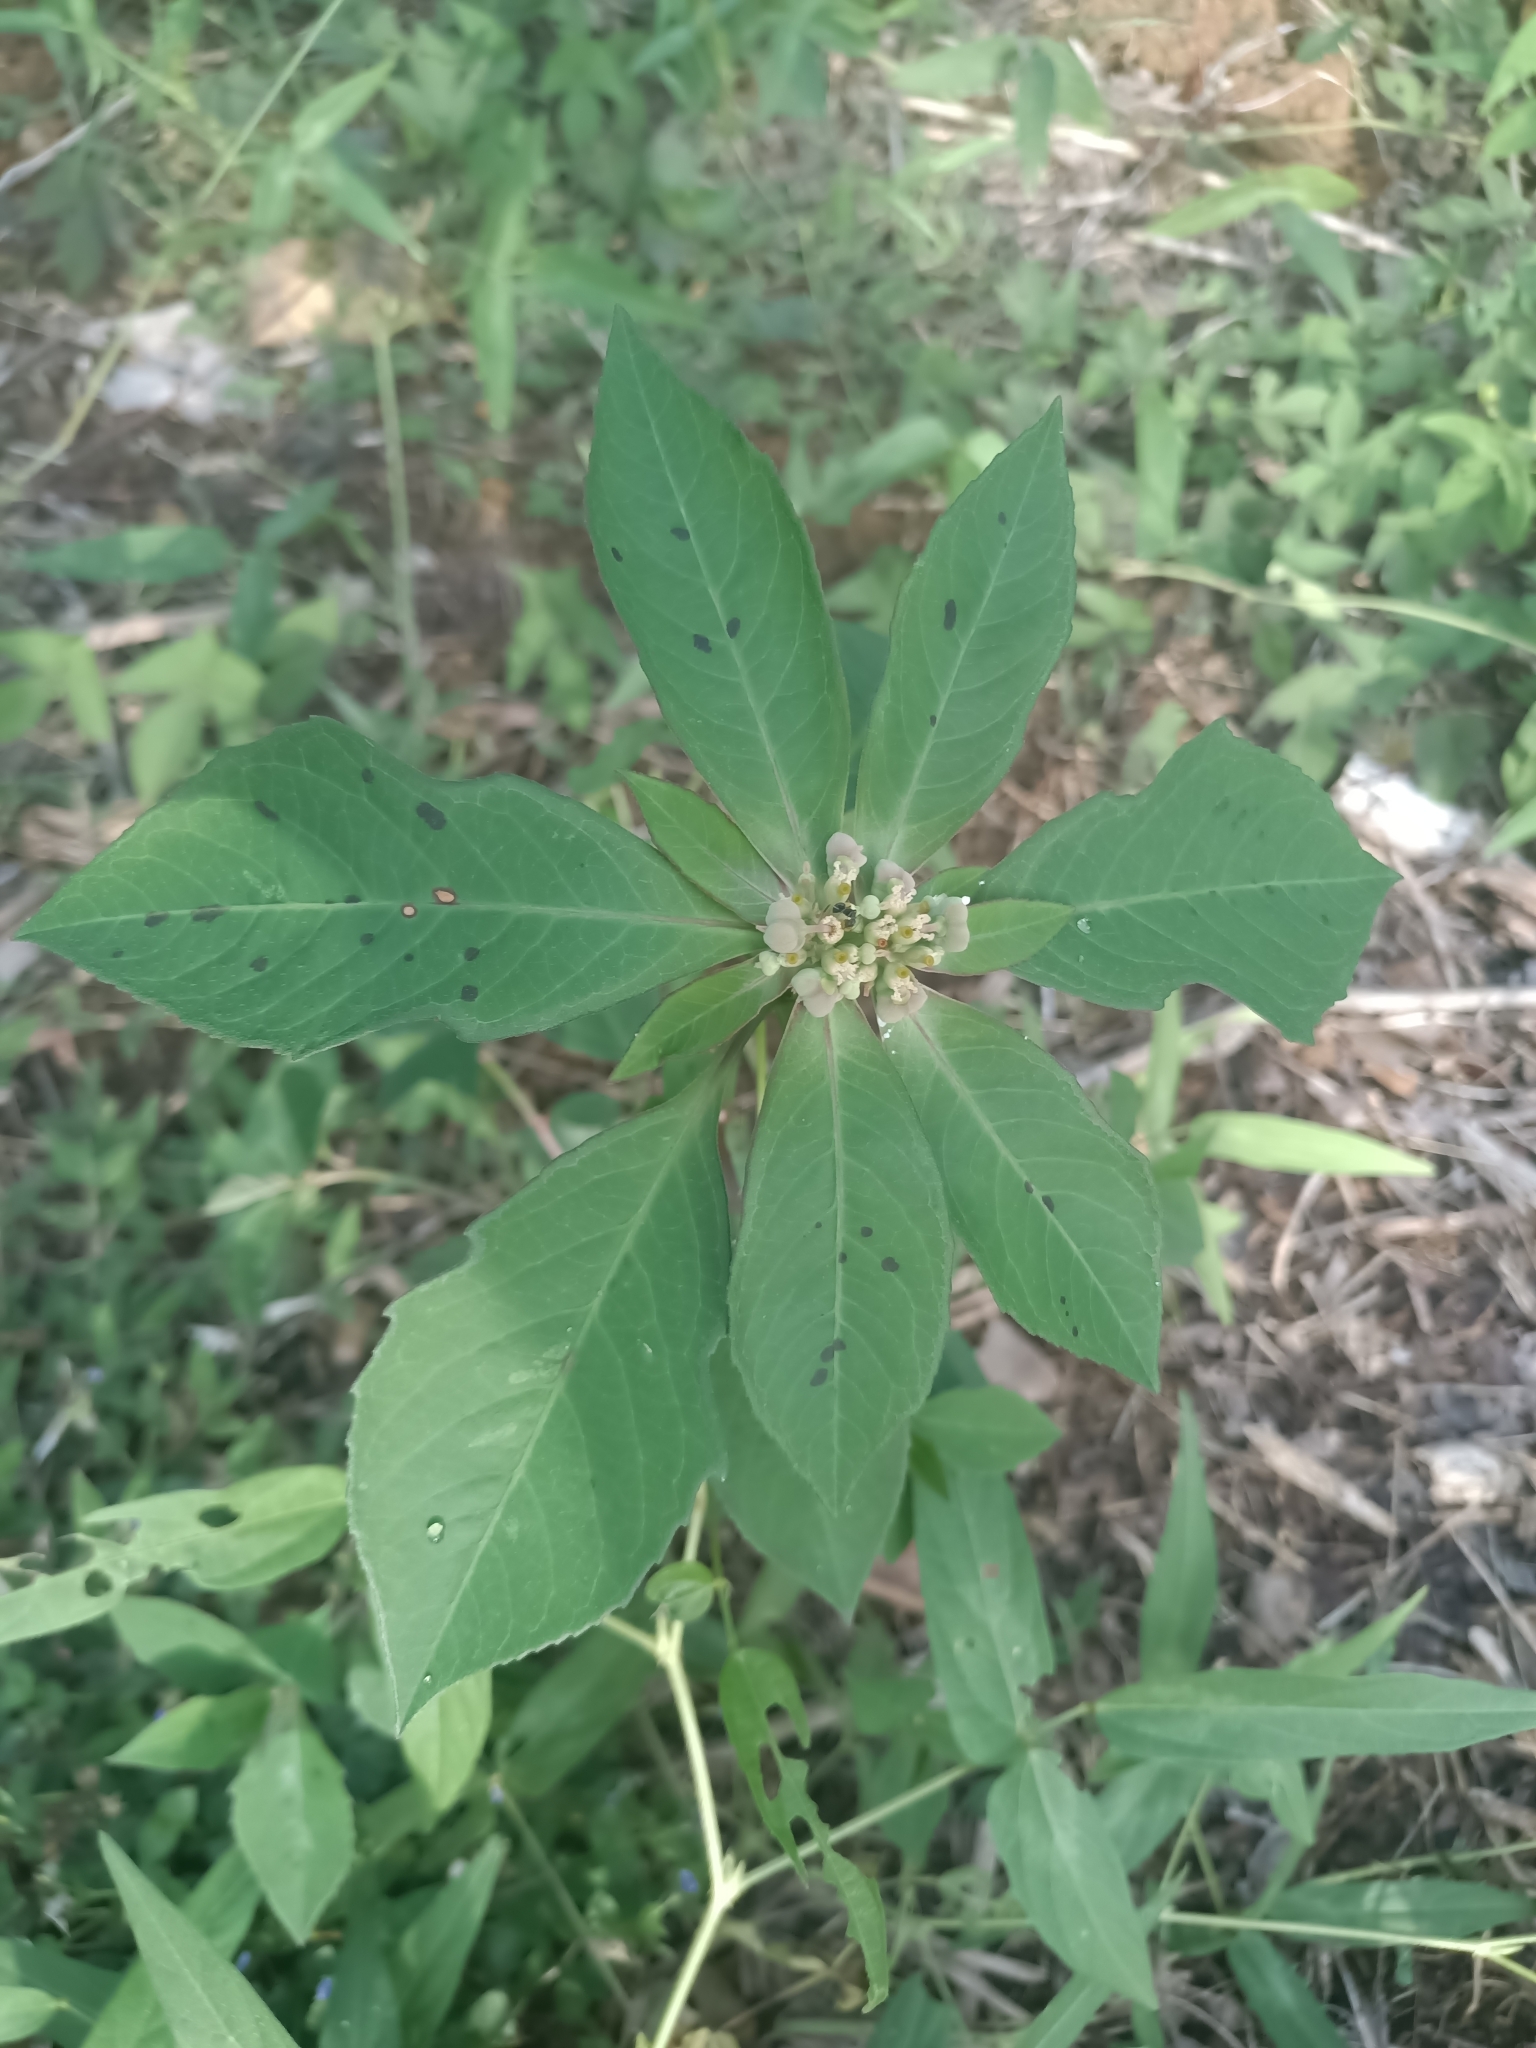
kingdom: Plantae
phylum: Tracheophyta
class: Magnoliopsida
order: Malpighiales
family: Euphorbiaceae
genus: Euphorbia
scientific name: Euphorbia heterophylla
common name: Mexican fireplant
